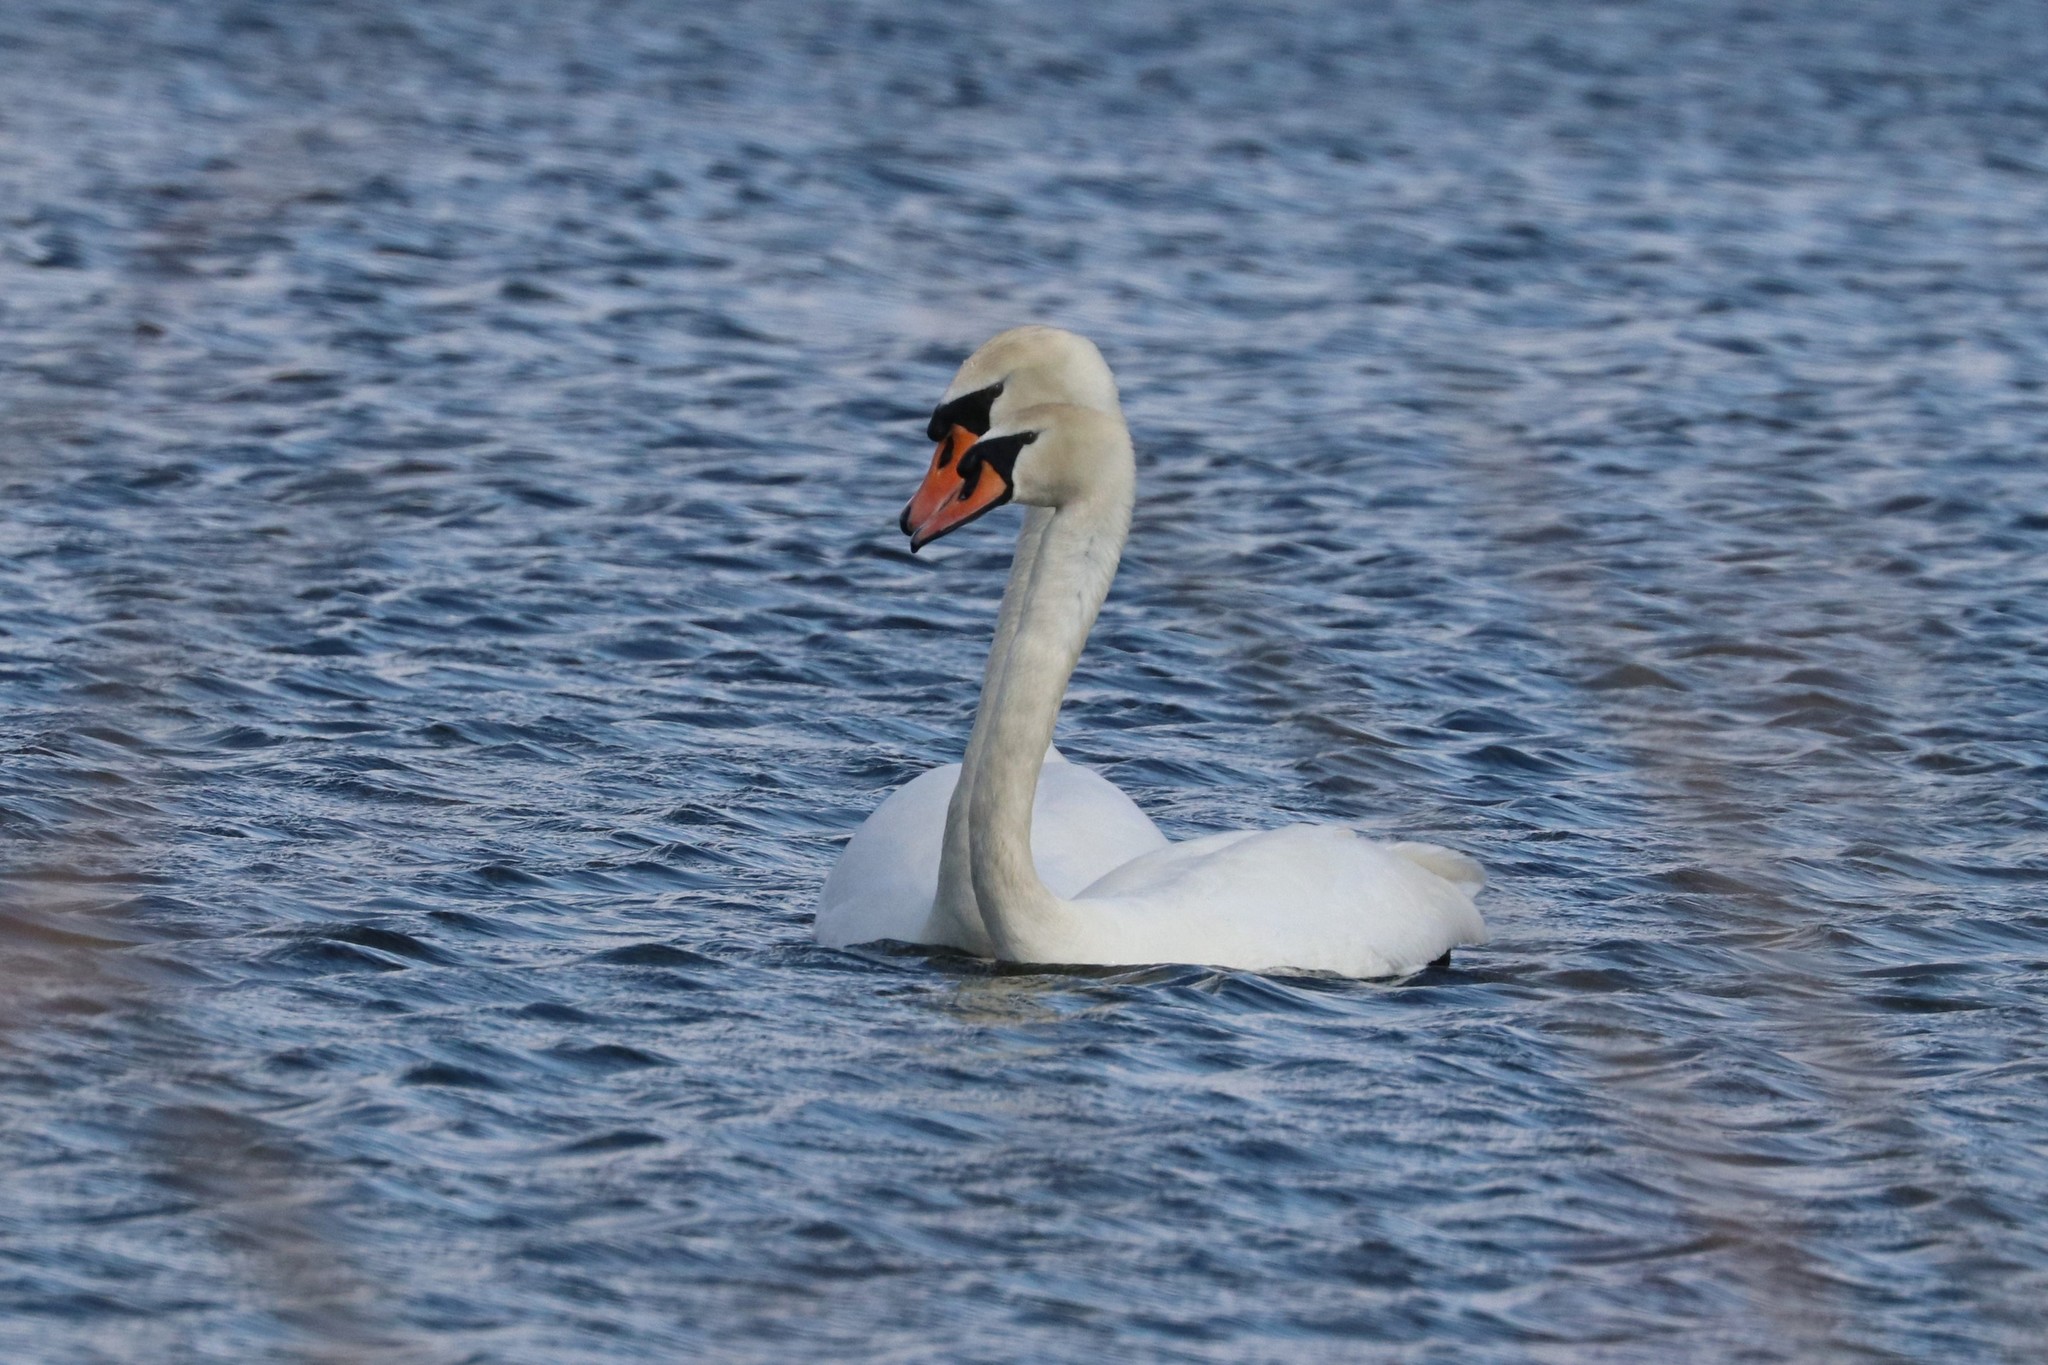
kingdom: Animalia
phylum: Chordata
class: Aves
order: Anseriformes
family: Anatidae
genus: Cygnus
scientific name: Cygnus olor
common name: Mute swan
